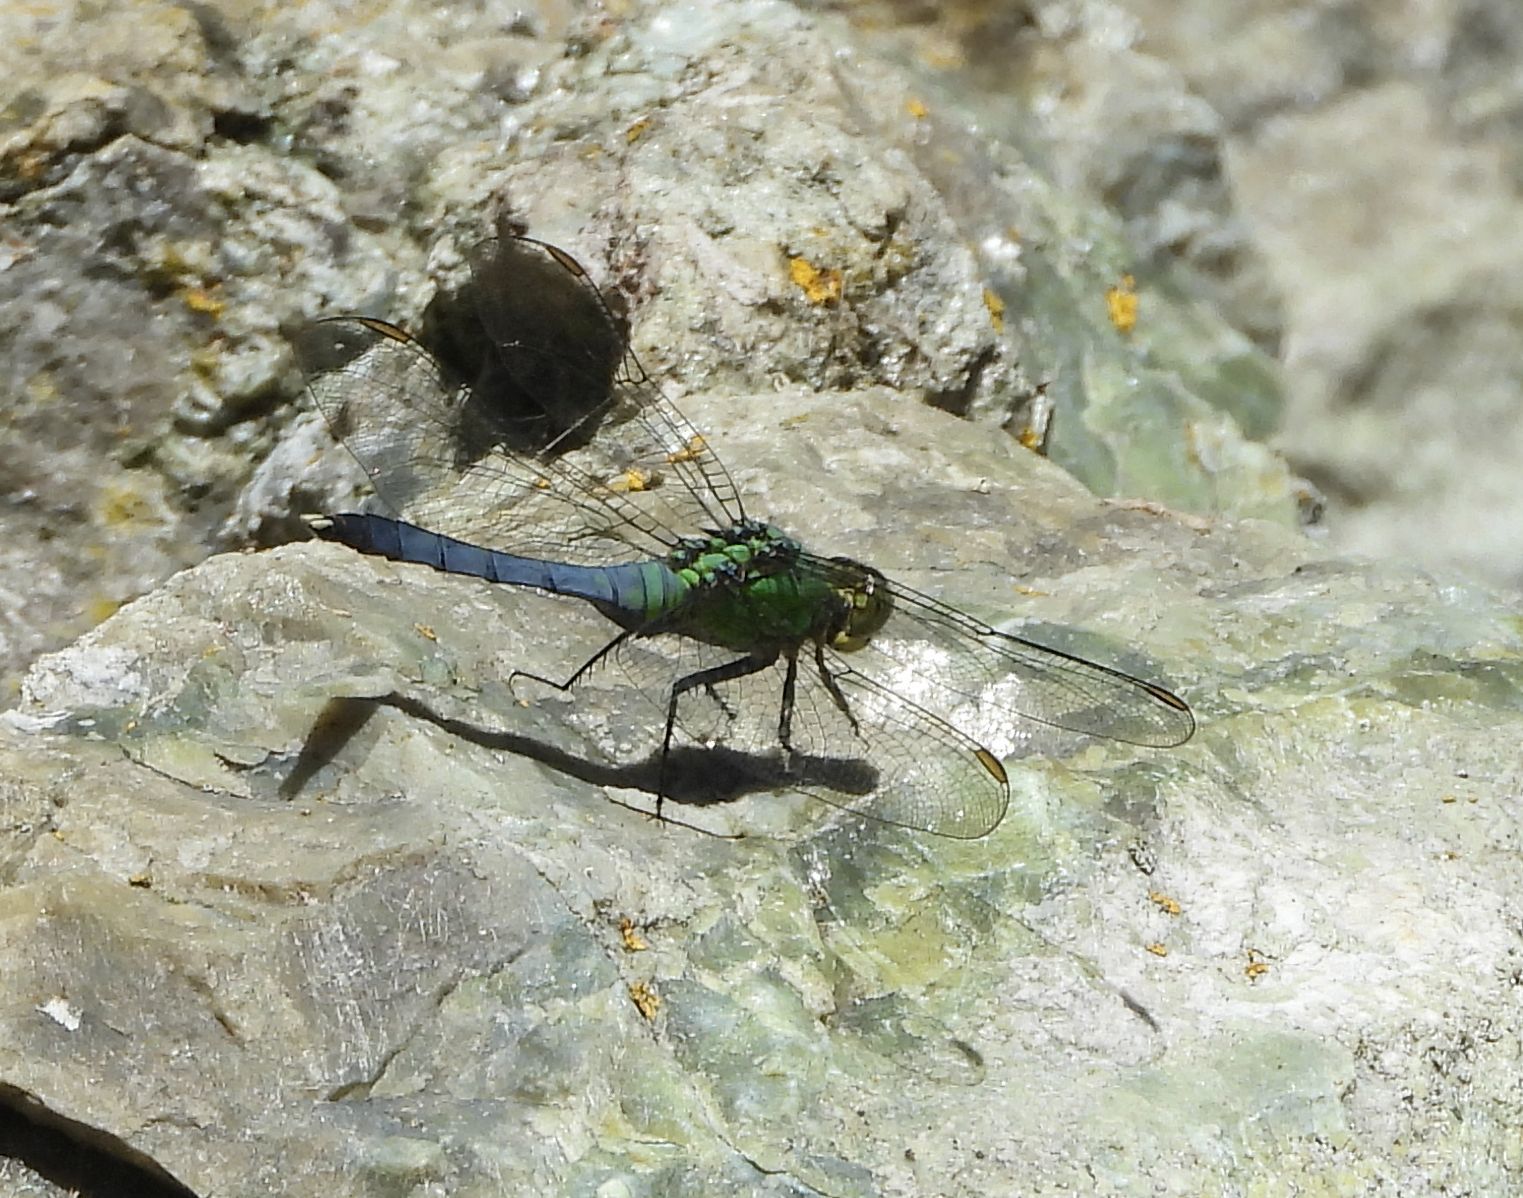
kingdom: Animalia
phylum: Arthropoda
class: Insecta
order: Odonata
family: Libellulidae
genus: Erythemis
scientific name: Erythemis simplicicollis
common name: Eastern pondhawk
